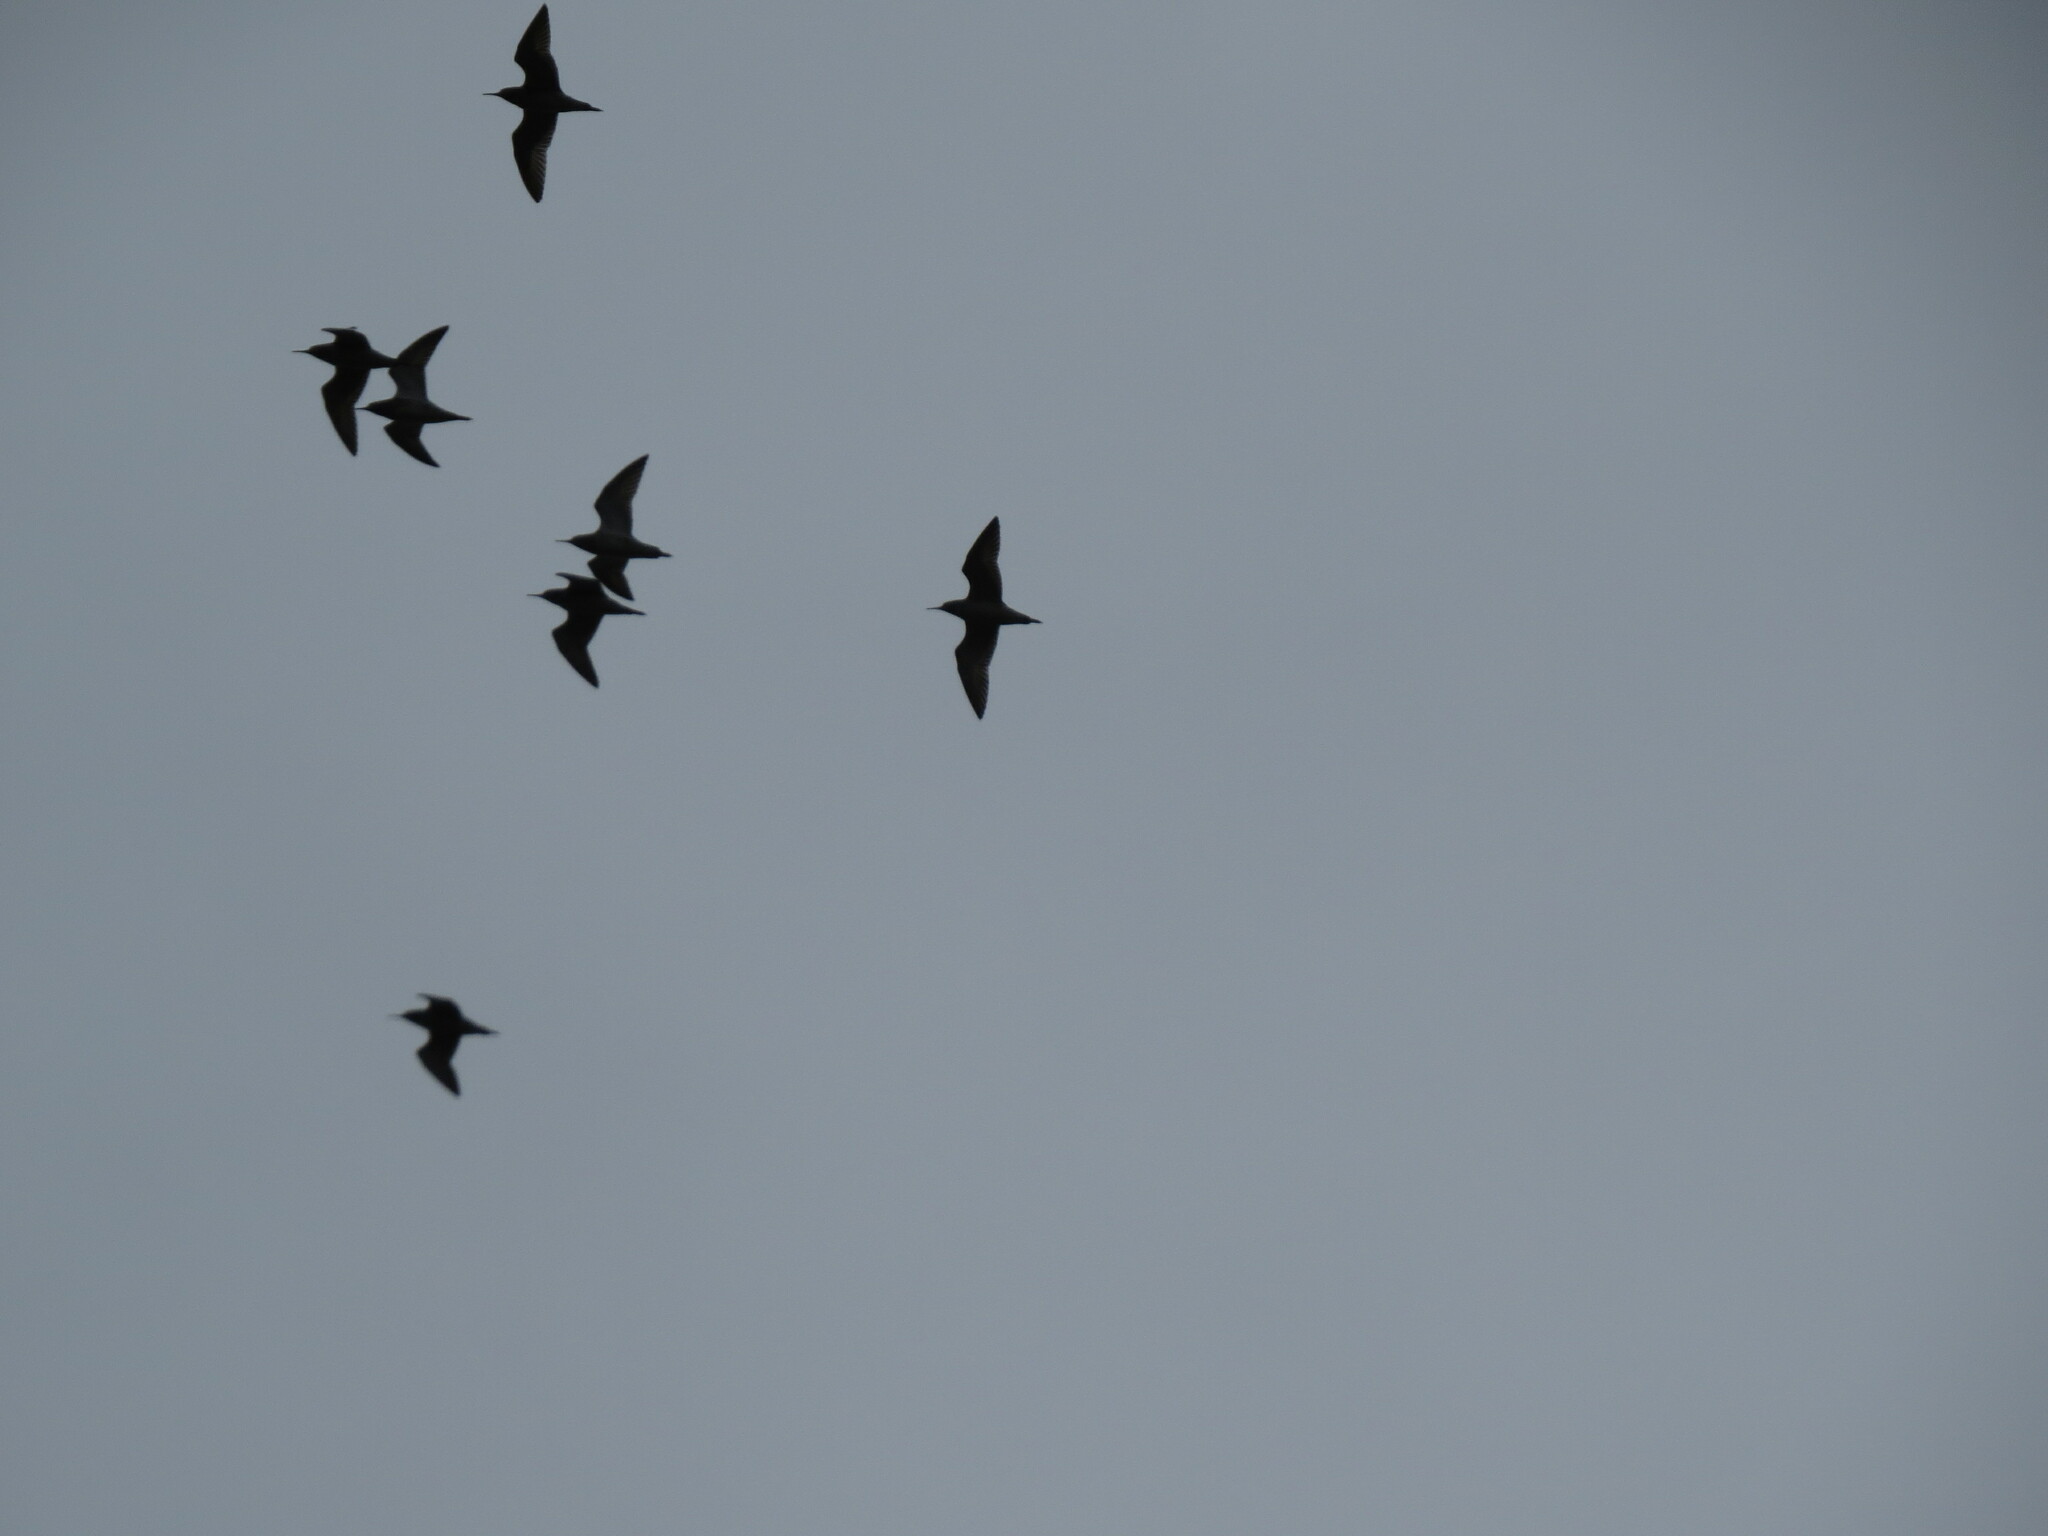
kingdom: Animalia
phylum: Chordata
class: Aves
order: Charadriiformes
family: Scolopacidae
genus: Calidris
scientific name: Calidris pugnax
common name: Ruff
